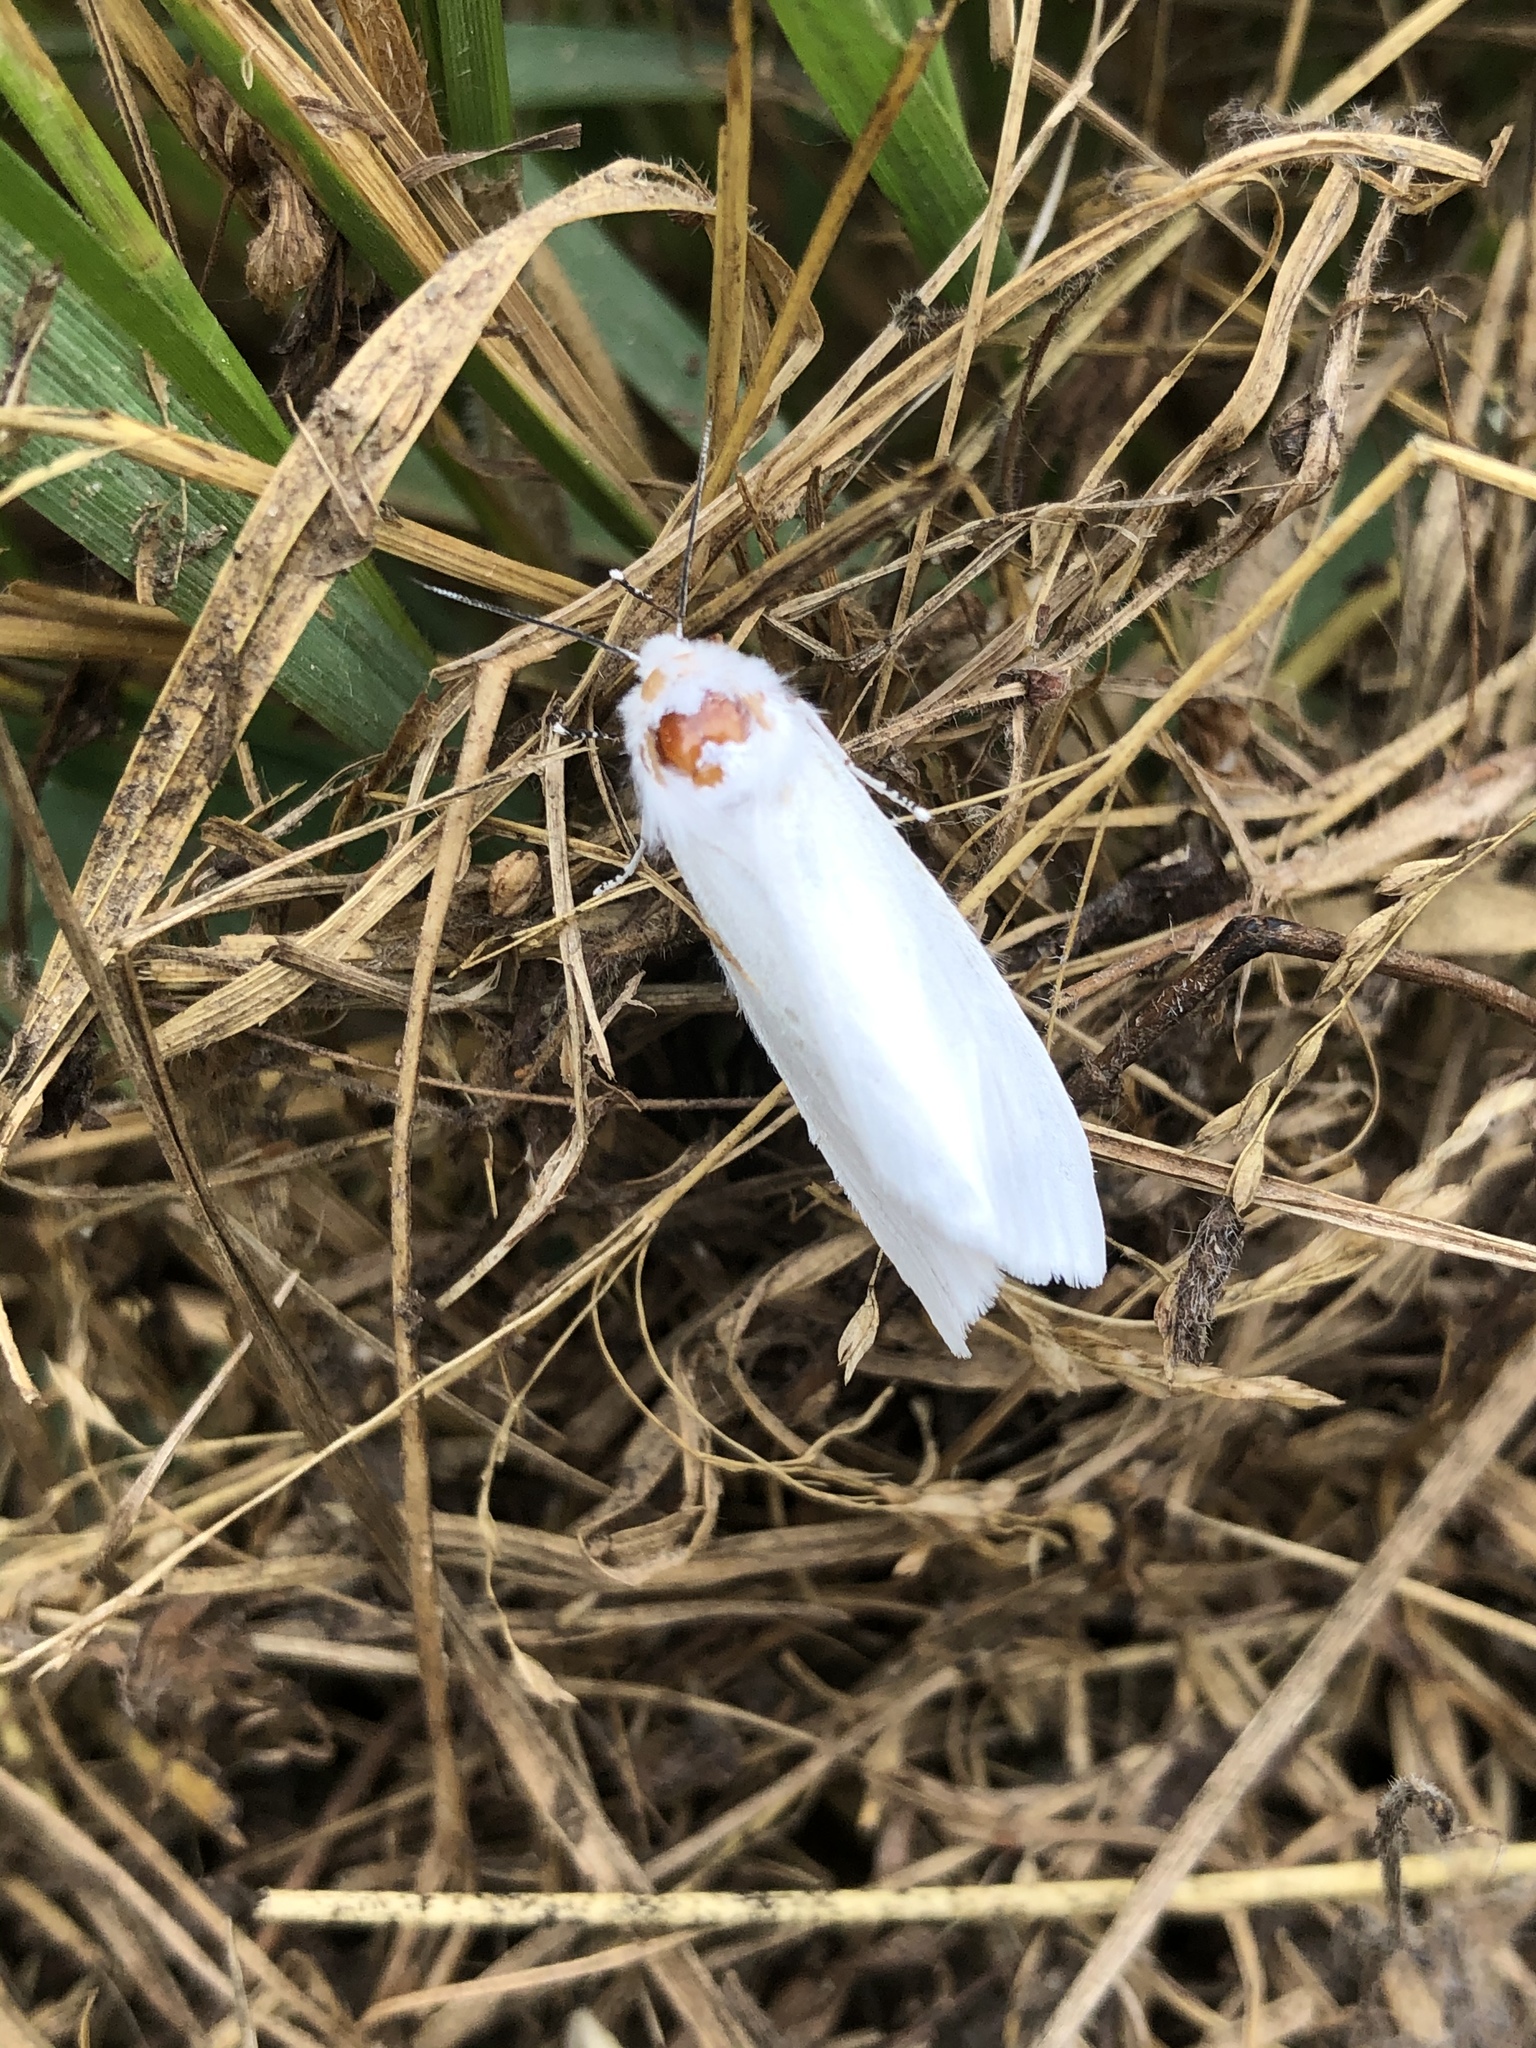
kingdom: Animalia
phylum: Arthropoda
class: Insecta
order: Lepidoptera
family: Erebidae
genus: Hyphantria
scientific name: Hyphantria cunea
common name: American white moth
